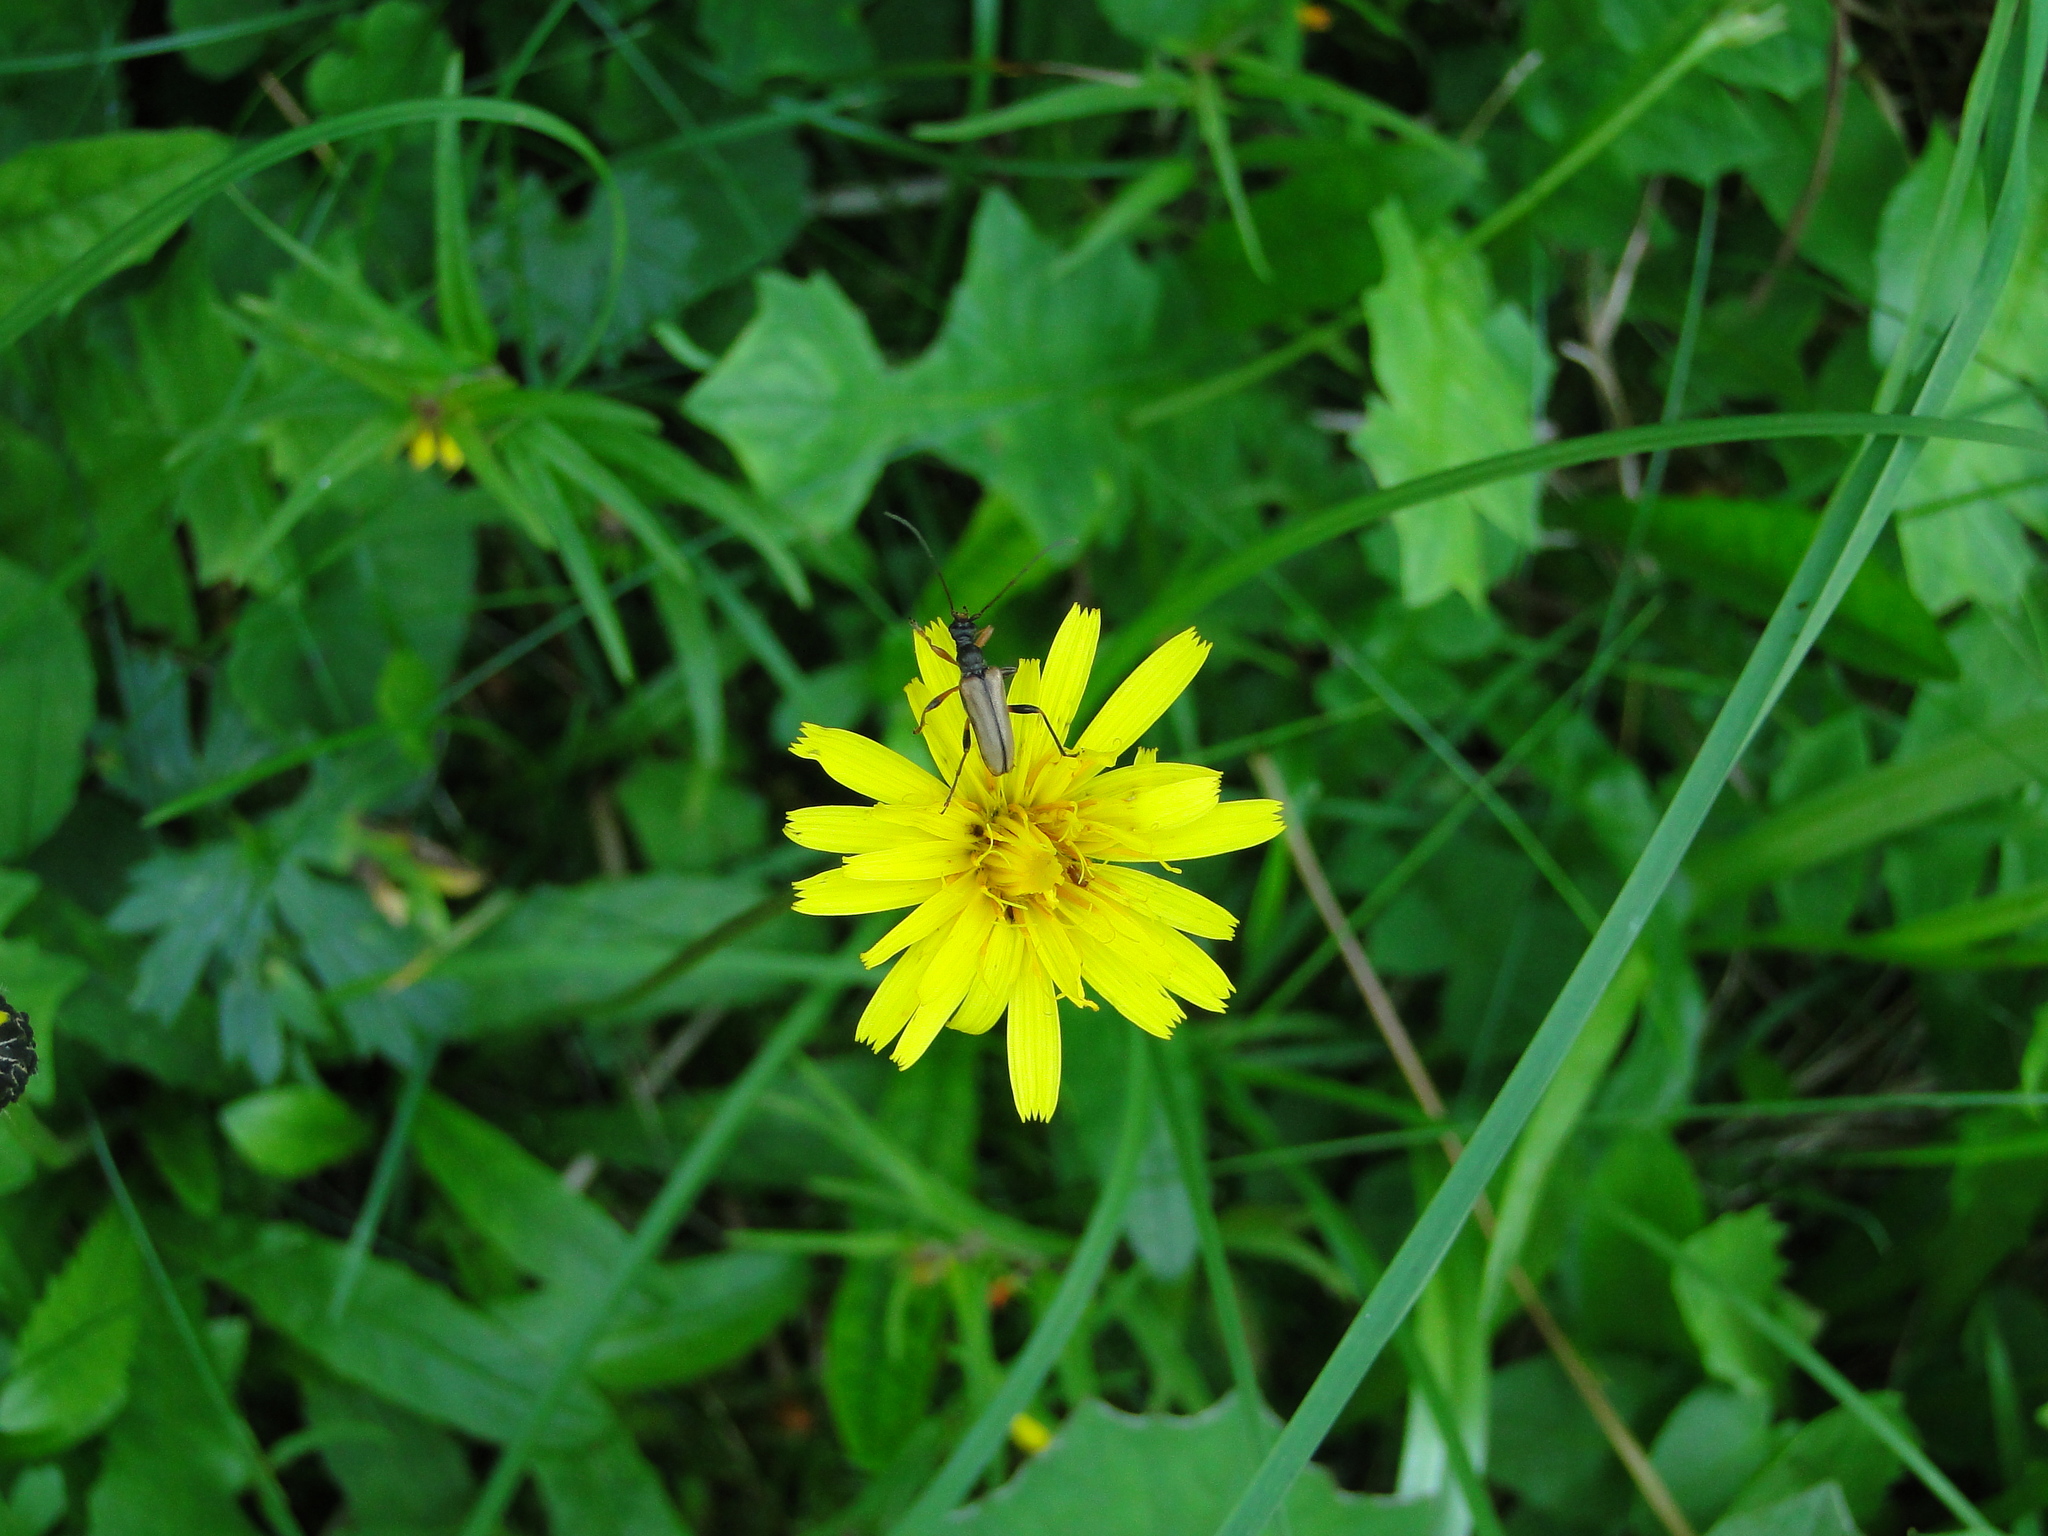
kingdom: Animalia
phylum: Arthropoda
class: Insecta
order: Coleoptera
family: Cerambycidae
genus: Pidonia
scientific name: Pidonia lurida
